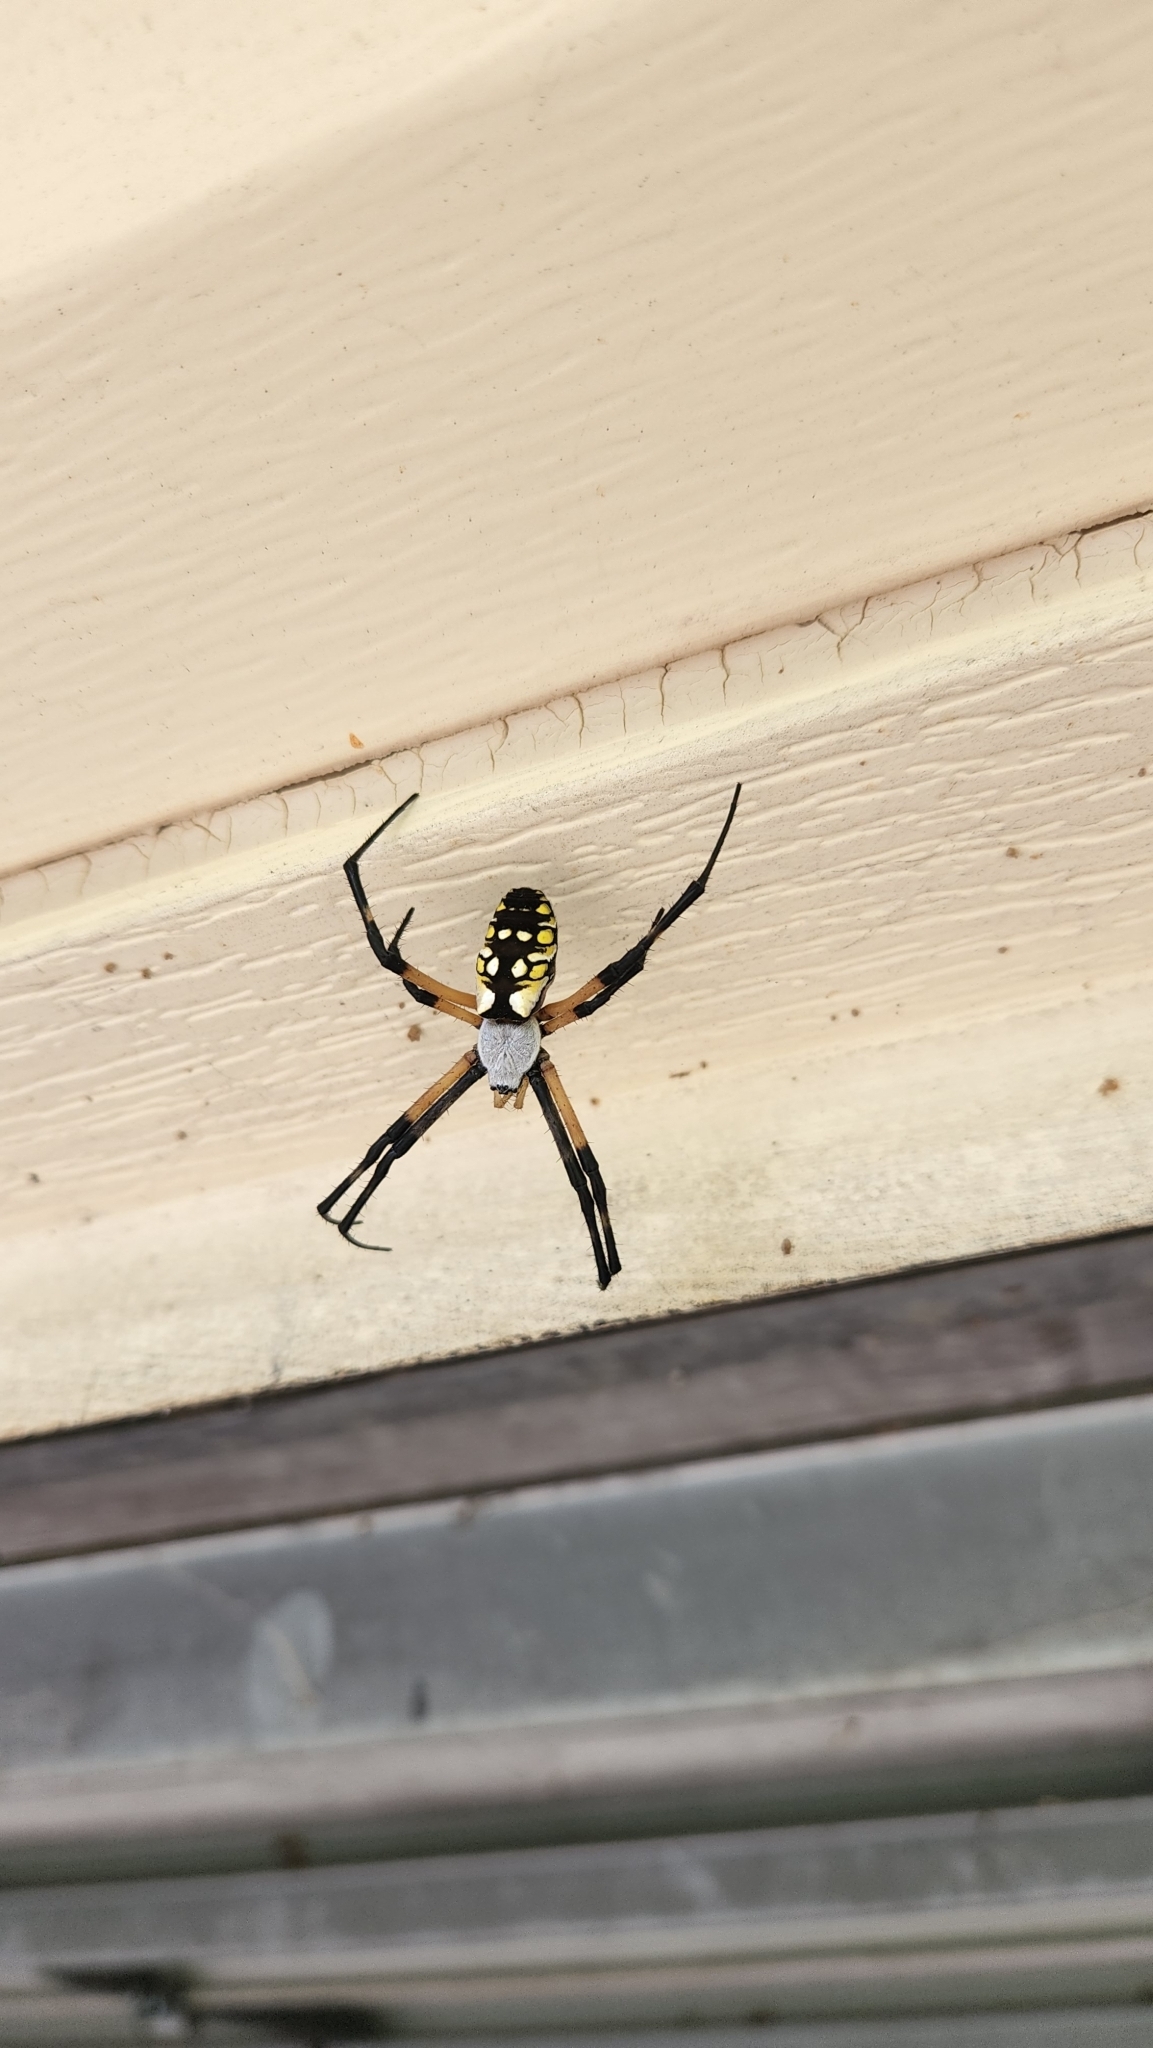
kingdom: Animalia
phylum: Arthropoda
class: Arachnida
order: Araneae
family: Araneidae
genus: Argiope
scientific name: Argiope aurantia
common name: Orb weavers
